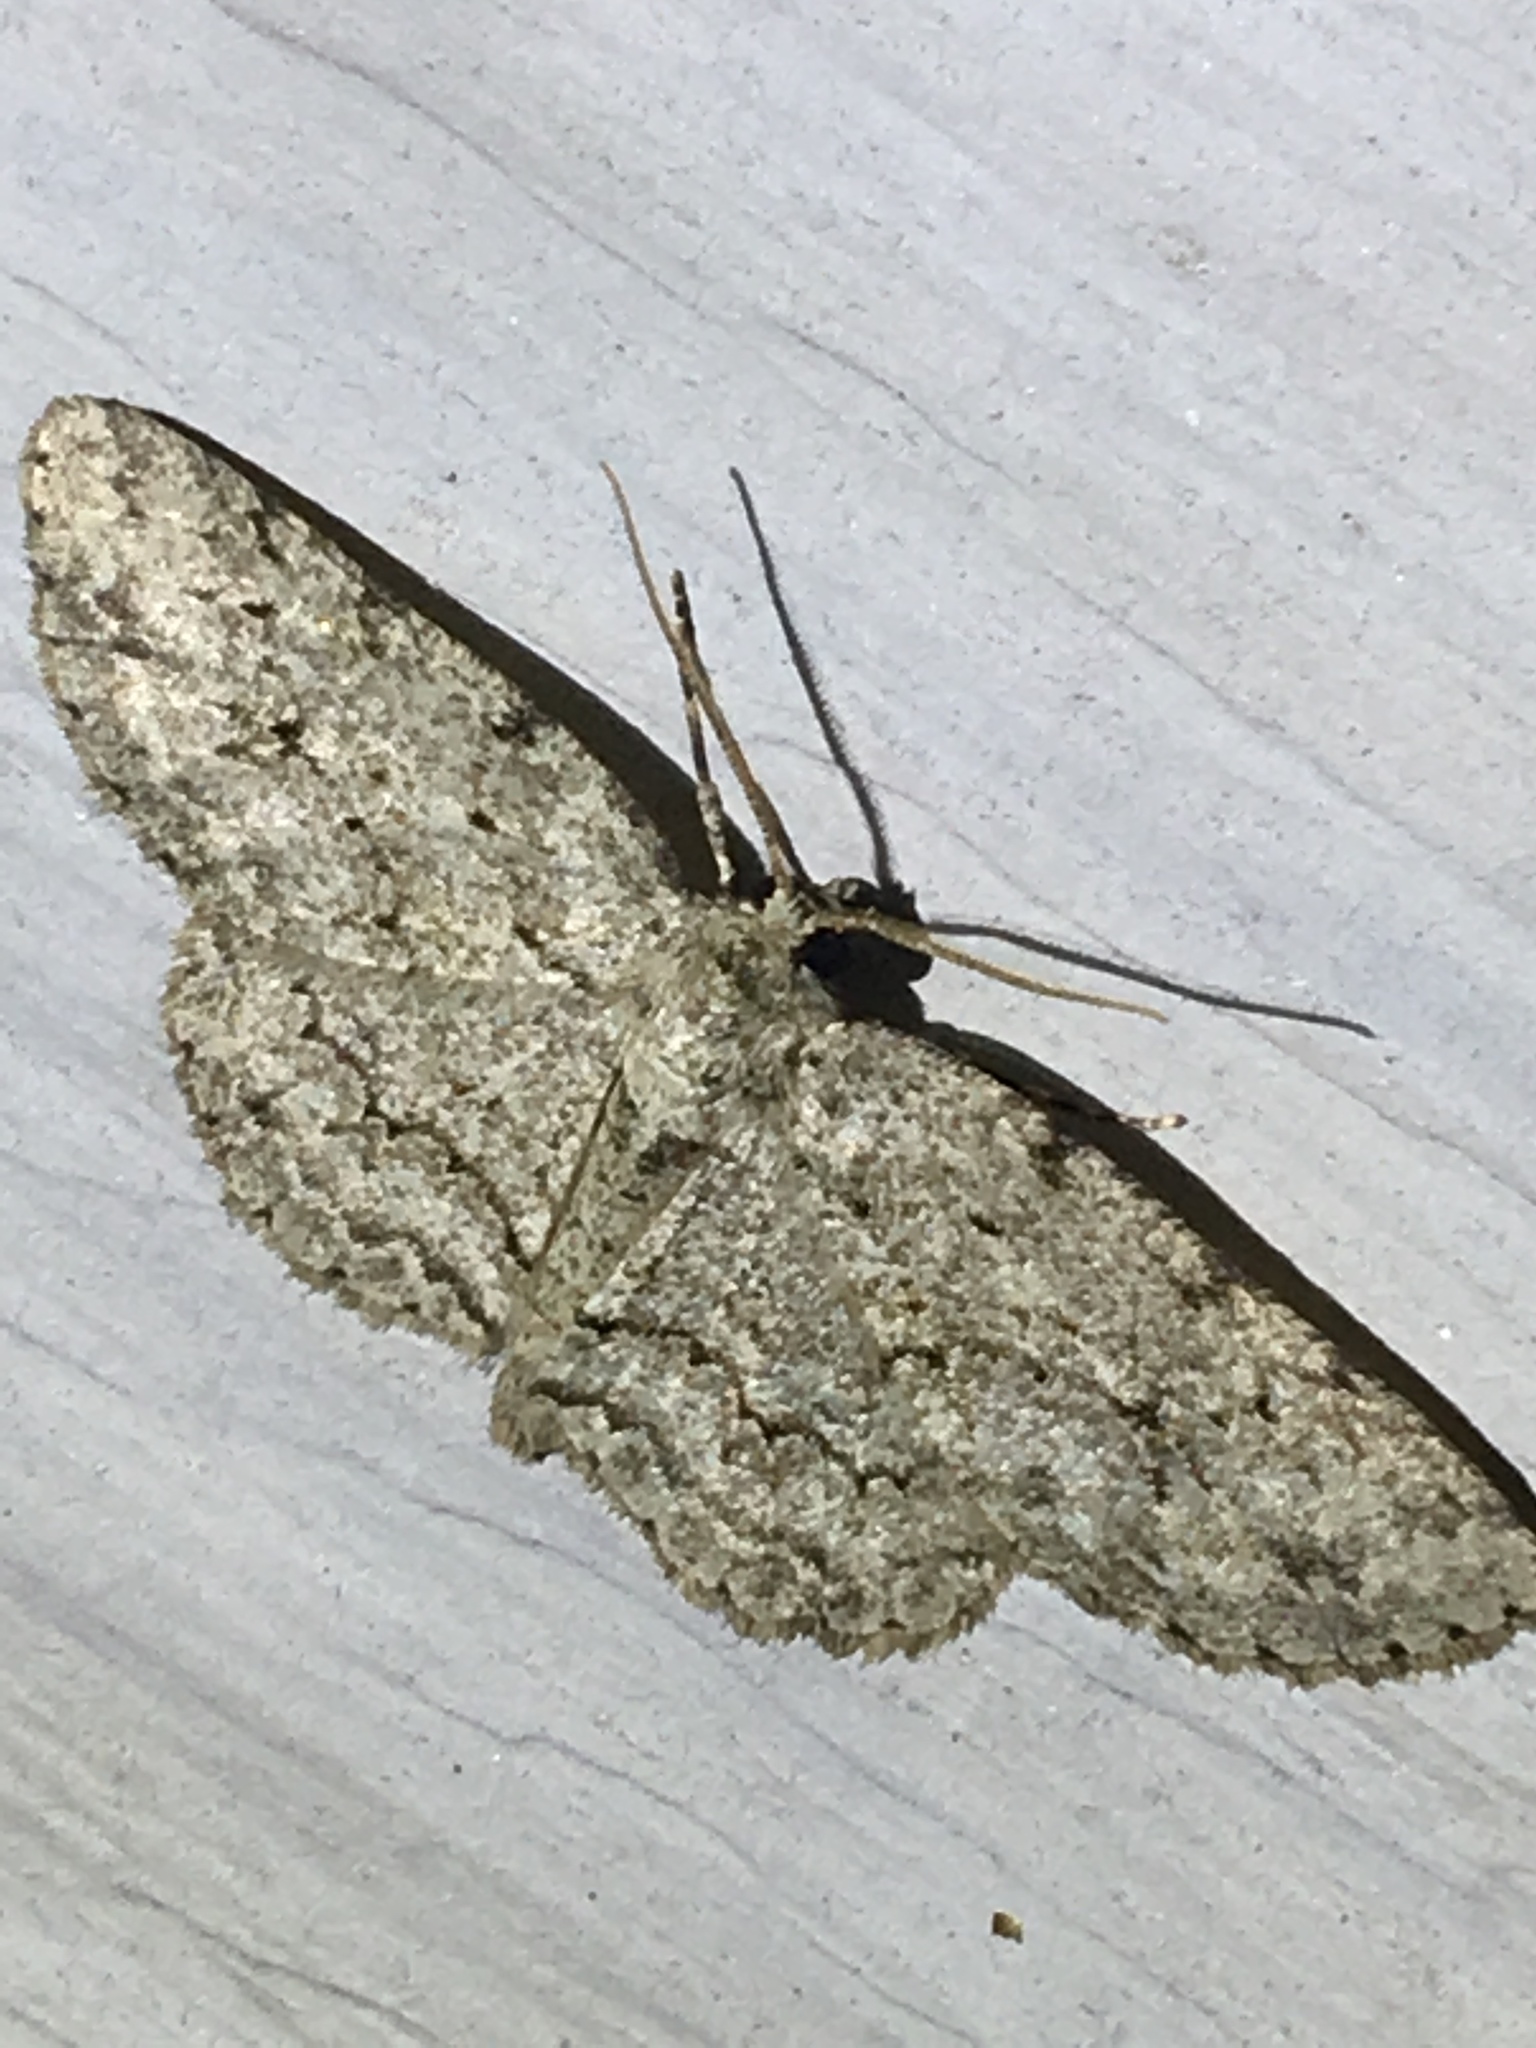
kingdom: Animalia
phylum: Arthropoda
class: Insecta
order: Lepidoptera
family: Geometridae
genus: Ectropis
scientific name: Ectropis crepuscularia
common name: Engrailed
